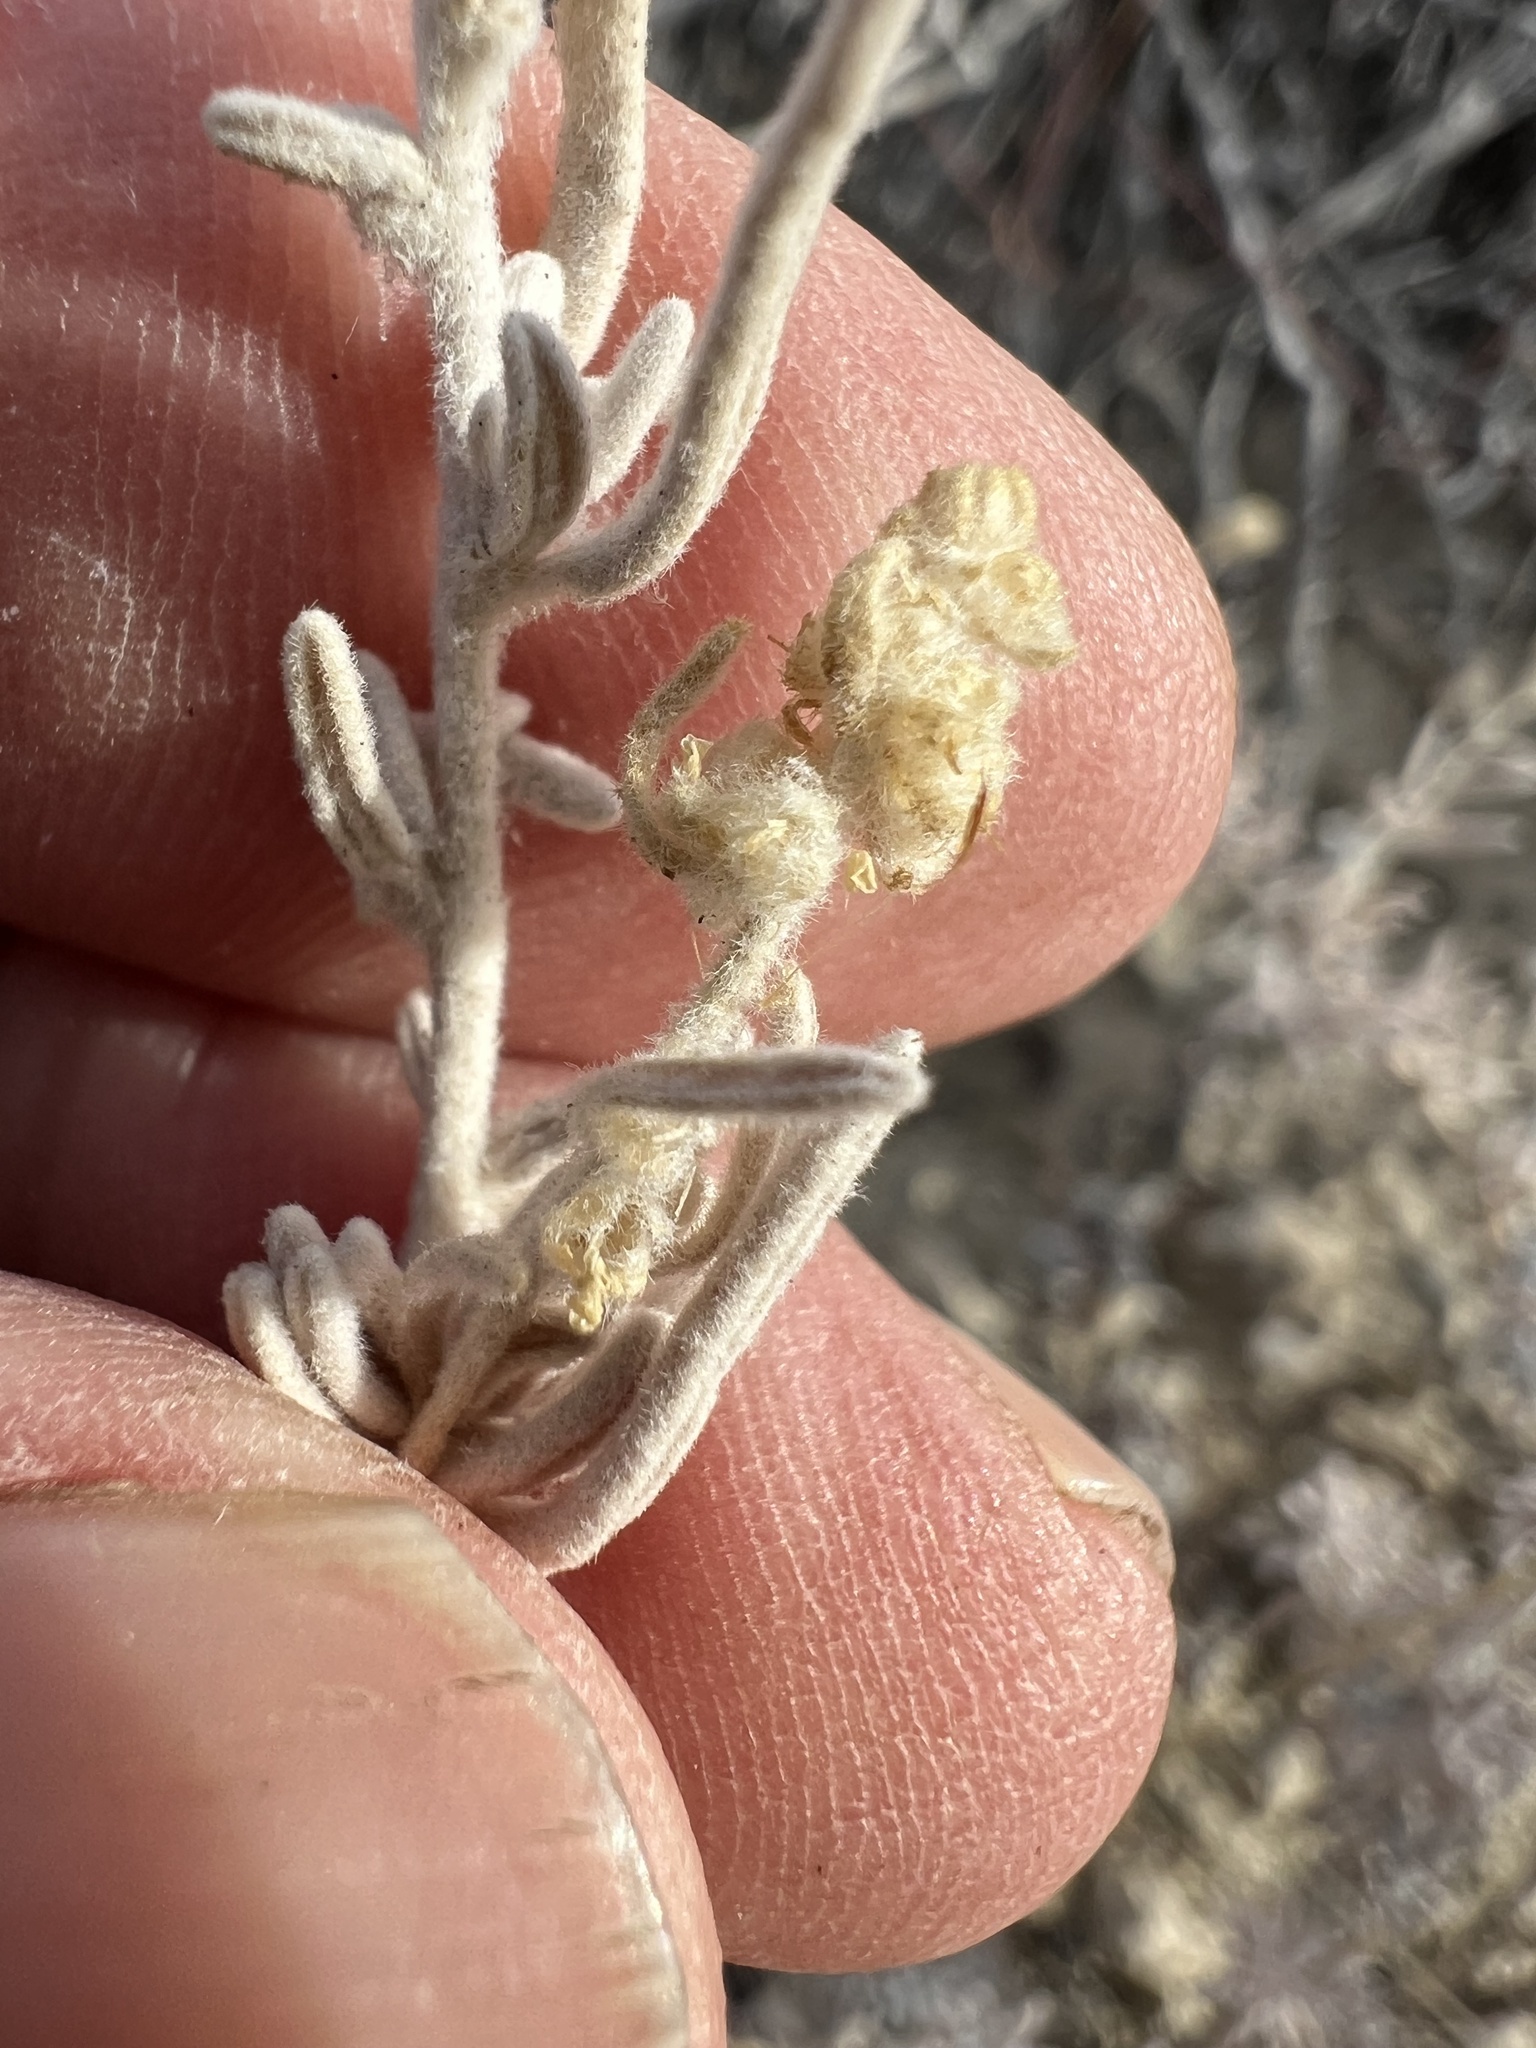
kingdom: Plantae
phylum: Tracheophyta
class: Magnoliopsida
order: Caryophyllales
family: Amaranthaceae
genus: Krascheninnikovia
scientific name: Krascheninnikovia lanata
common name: Winterfat
